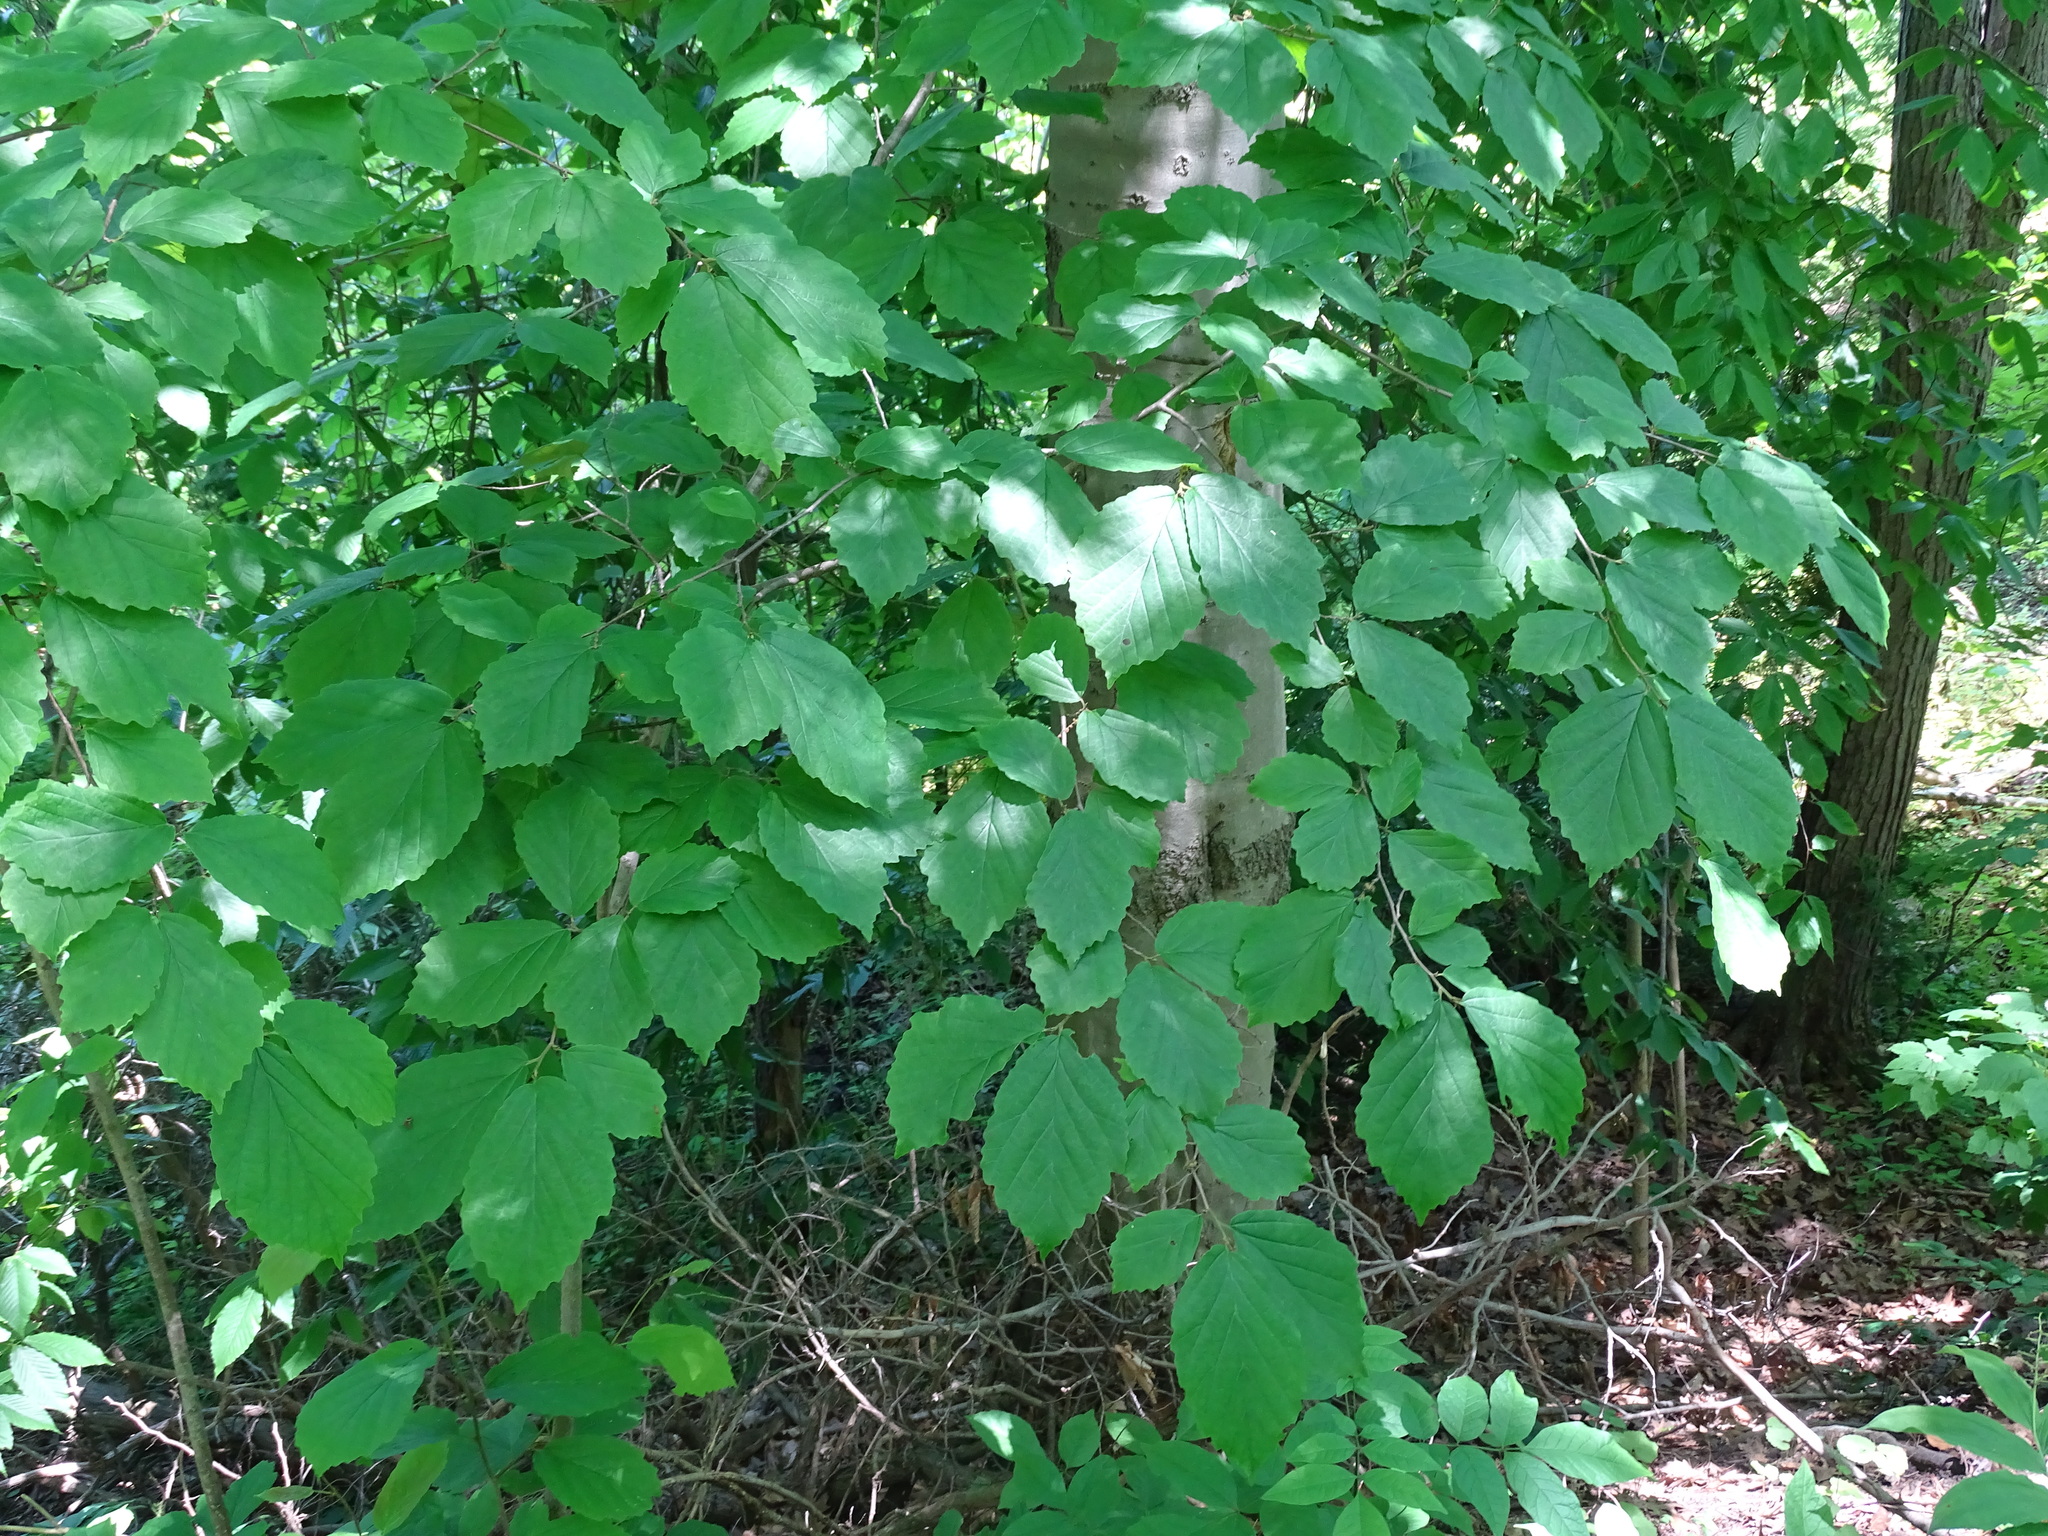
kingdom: Plantae
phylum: Tracheophyta
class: Magnoliopsida
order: Saxifragales
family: Hamamelidaceae
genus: Hamamelis
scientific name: Hamamelis virginiana
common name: Witch-hazel
